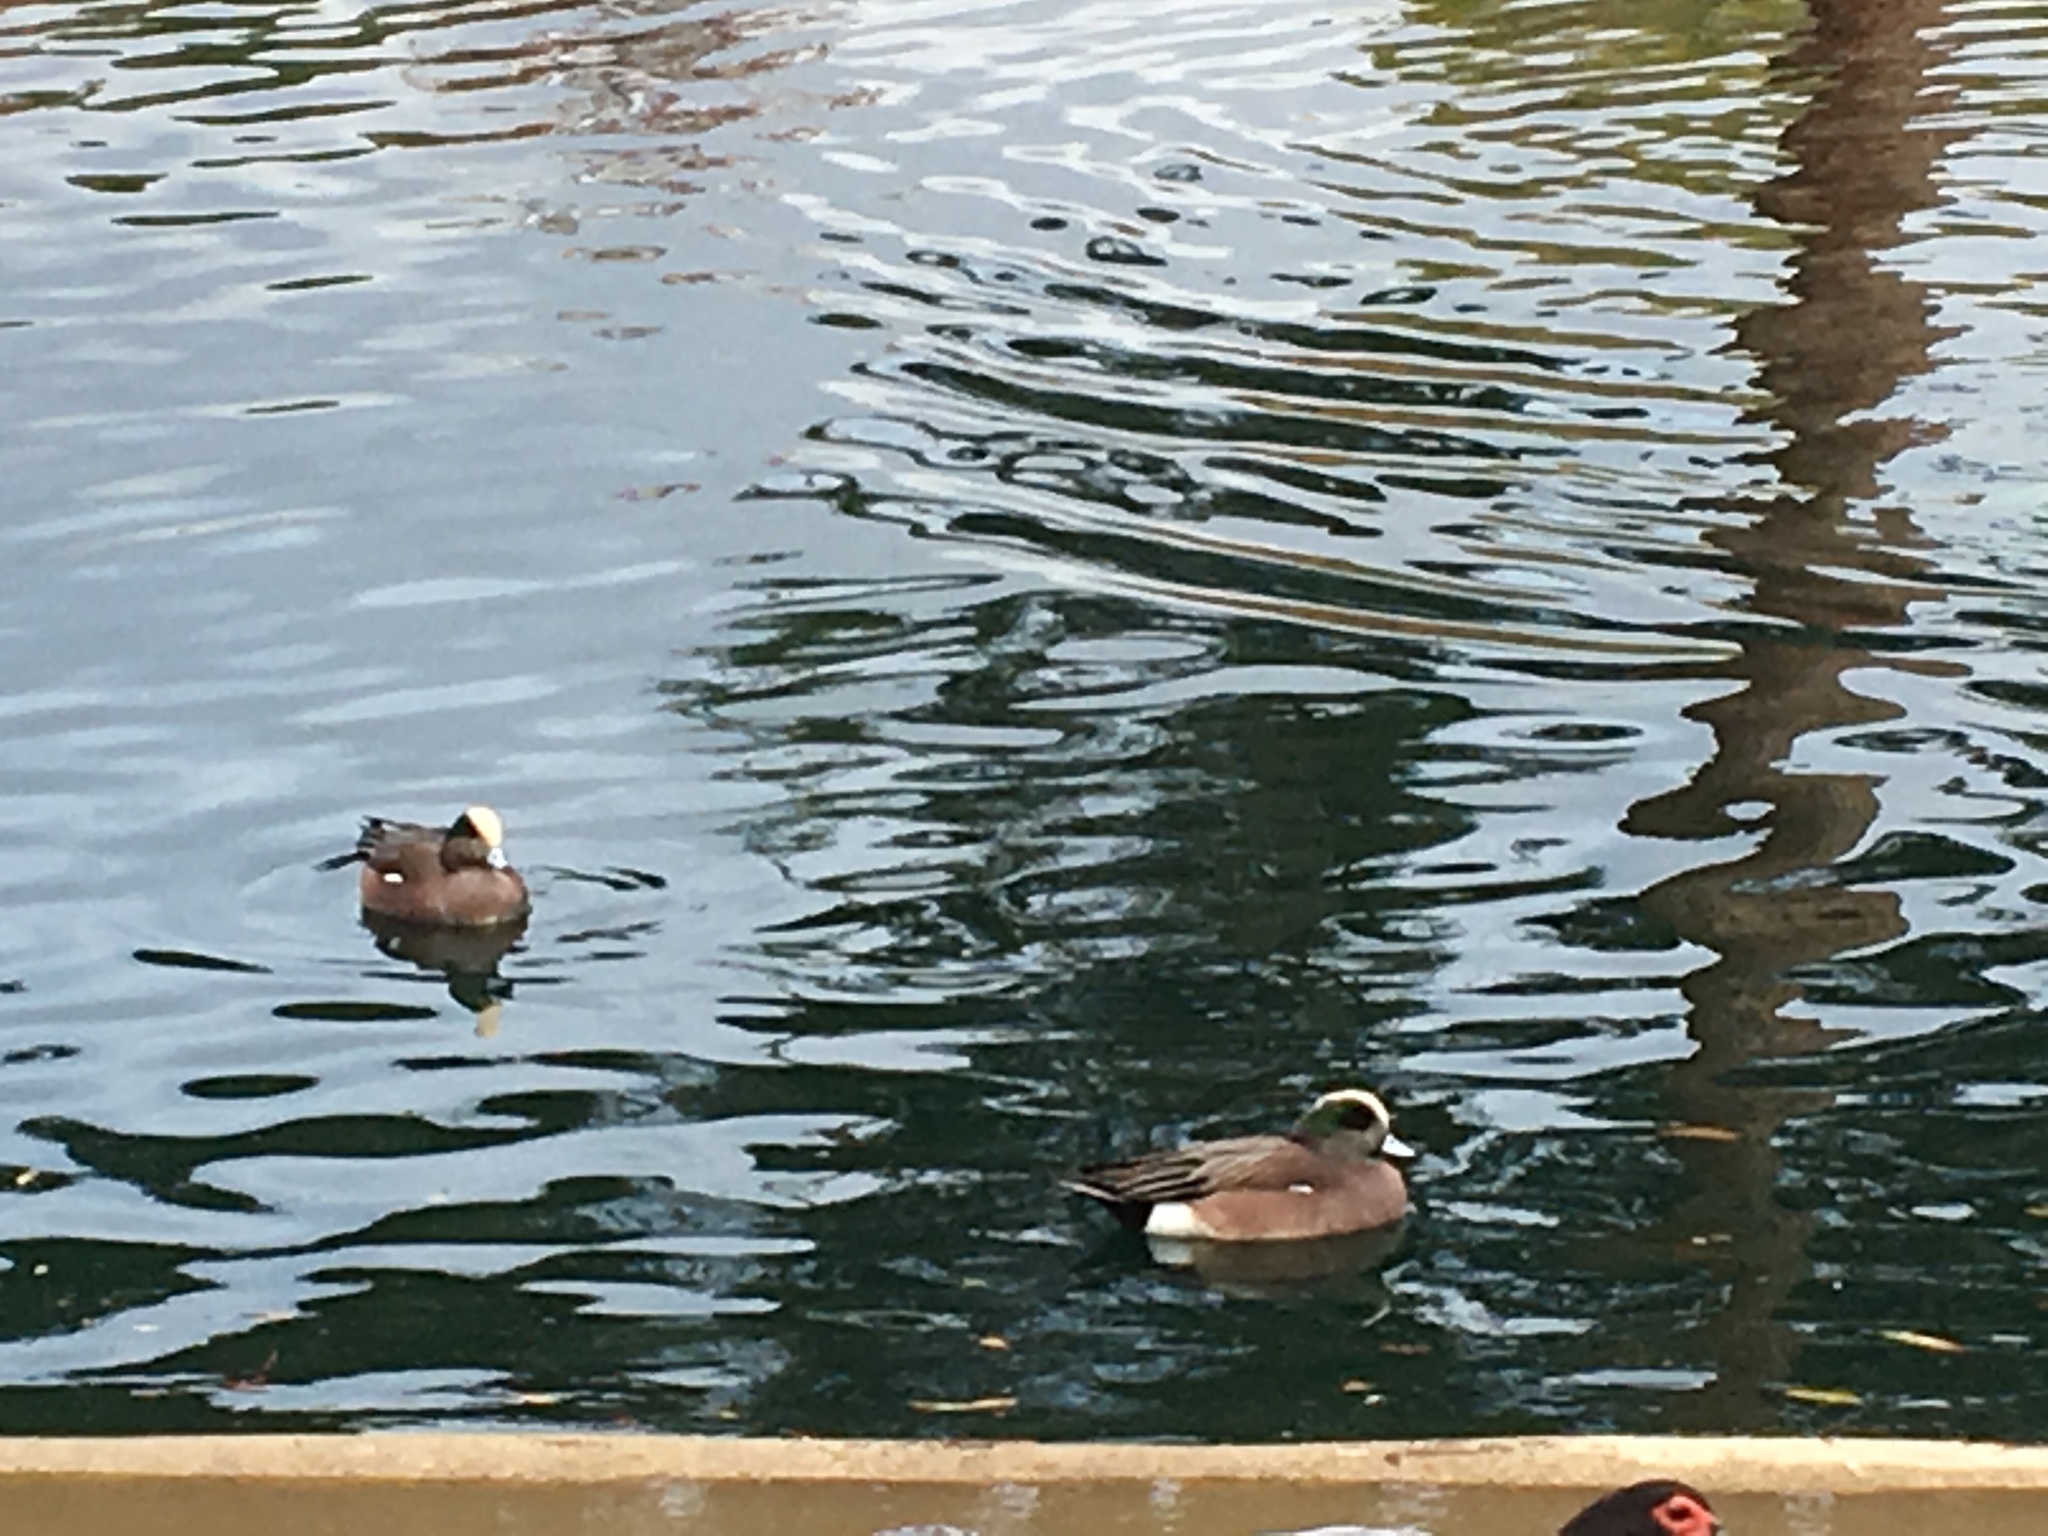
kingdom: Animalia
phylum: Chordata
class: Aves
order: Anseriformes
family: Anatidae
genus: Mareca
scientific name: Mareca americana
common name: American wigeon
